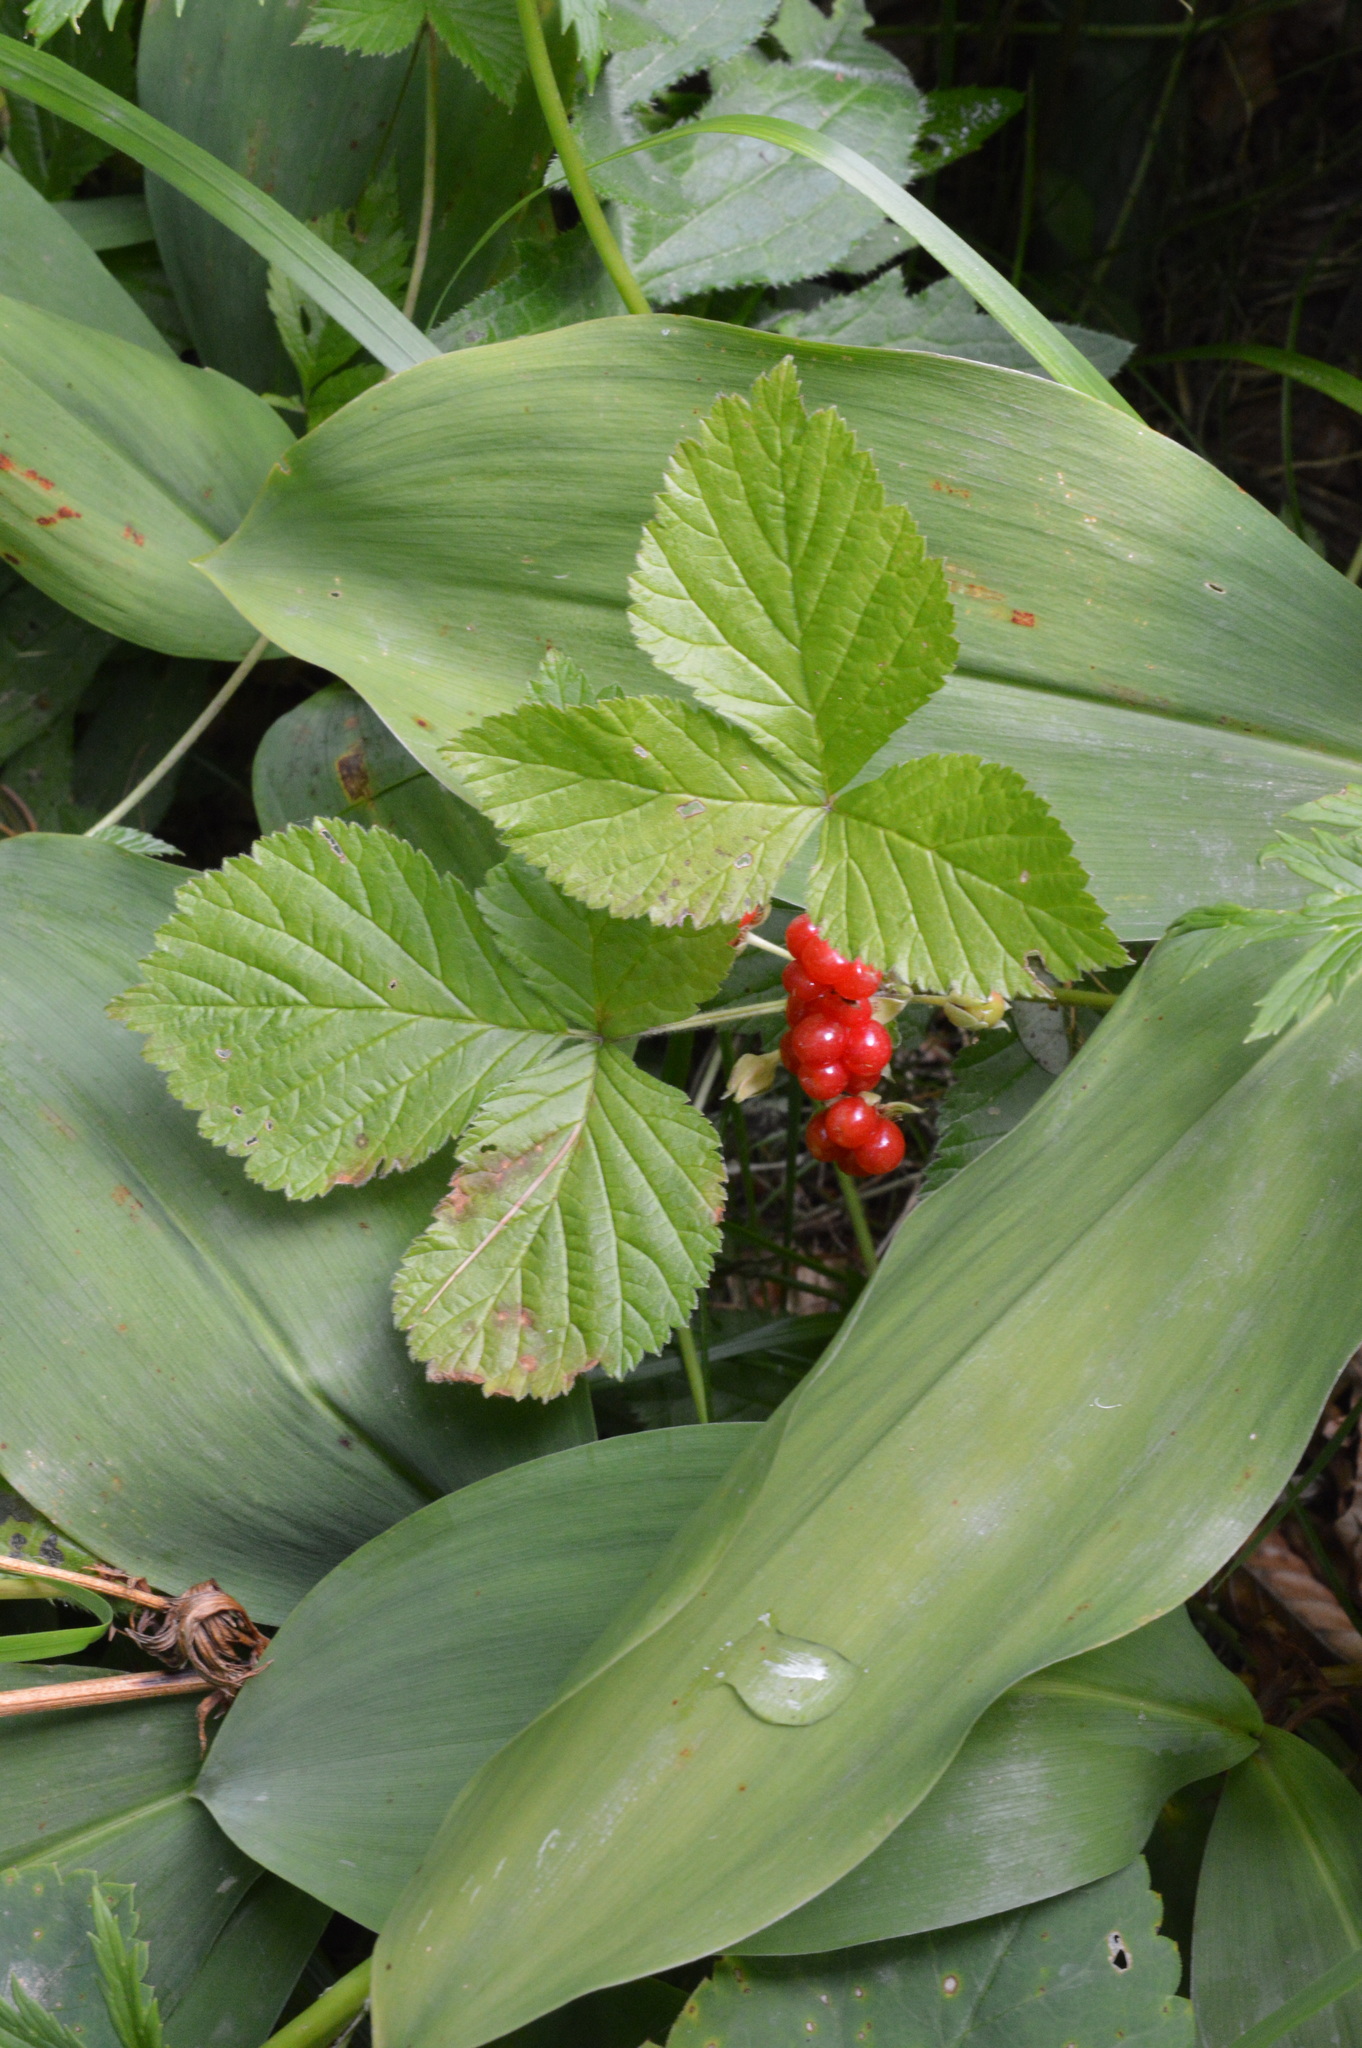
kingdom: Plantae
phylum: Tracheophyta
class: Magnoliopsida
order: Rosales
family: Rosaceae
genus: Rubus
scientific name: Rubus saxatilis
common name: Stone bramble
